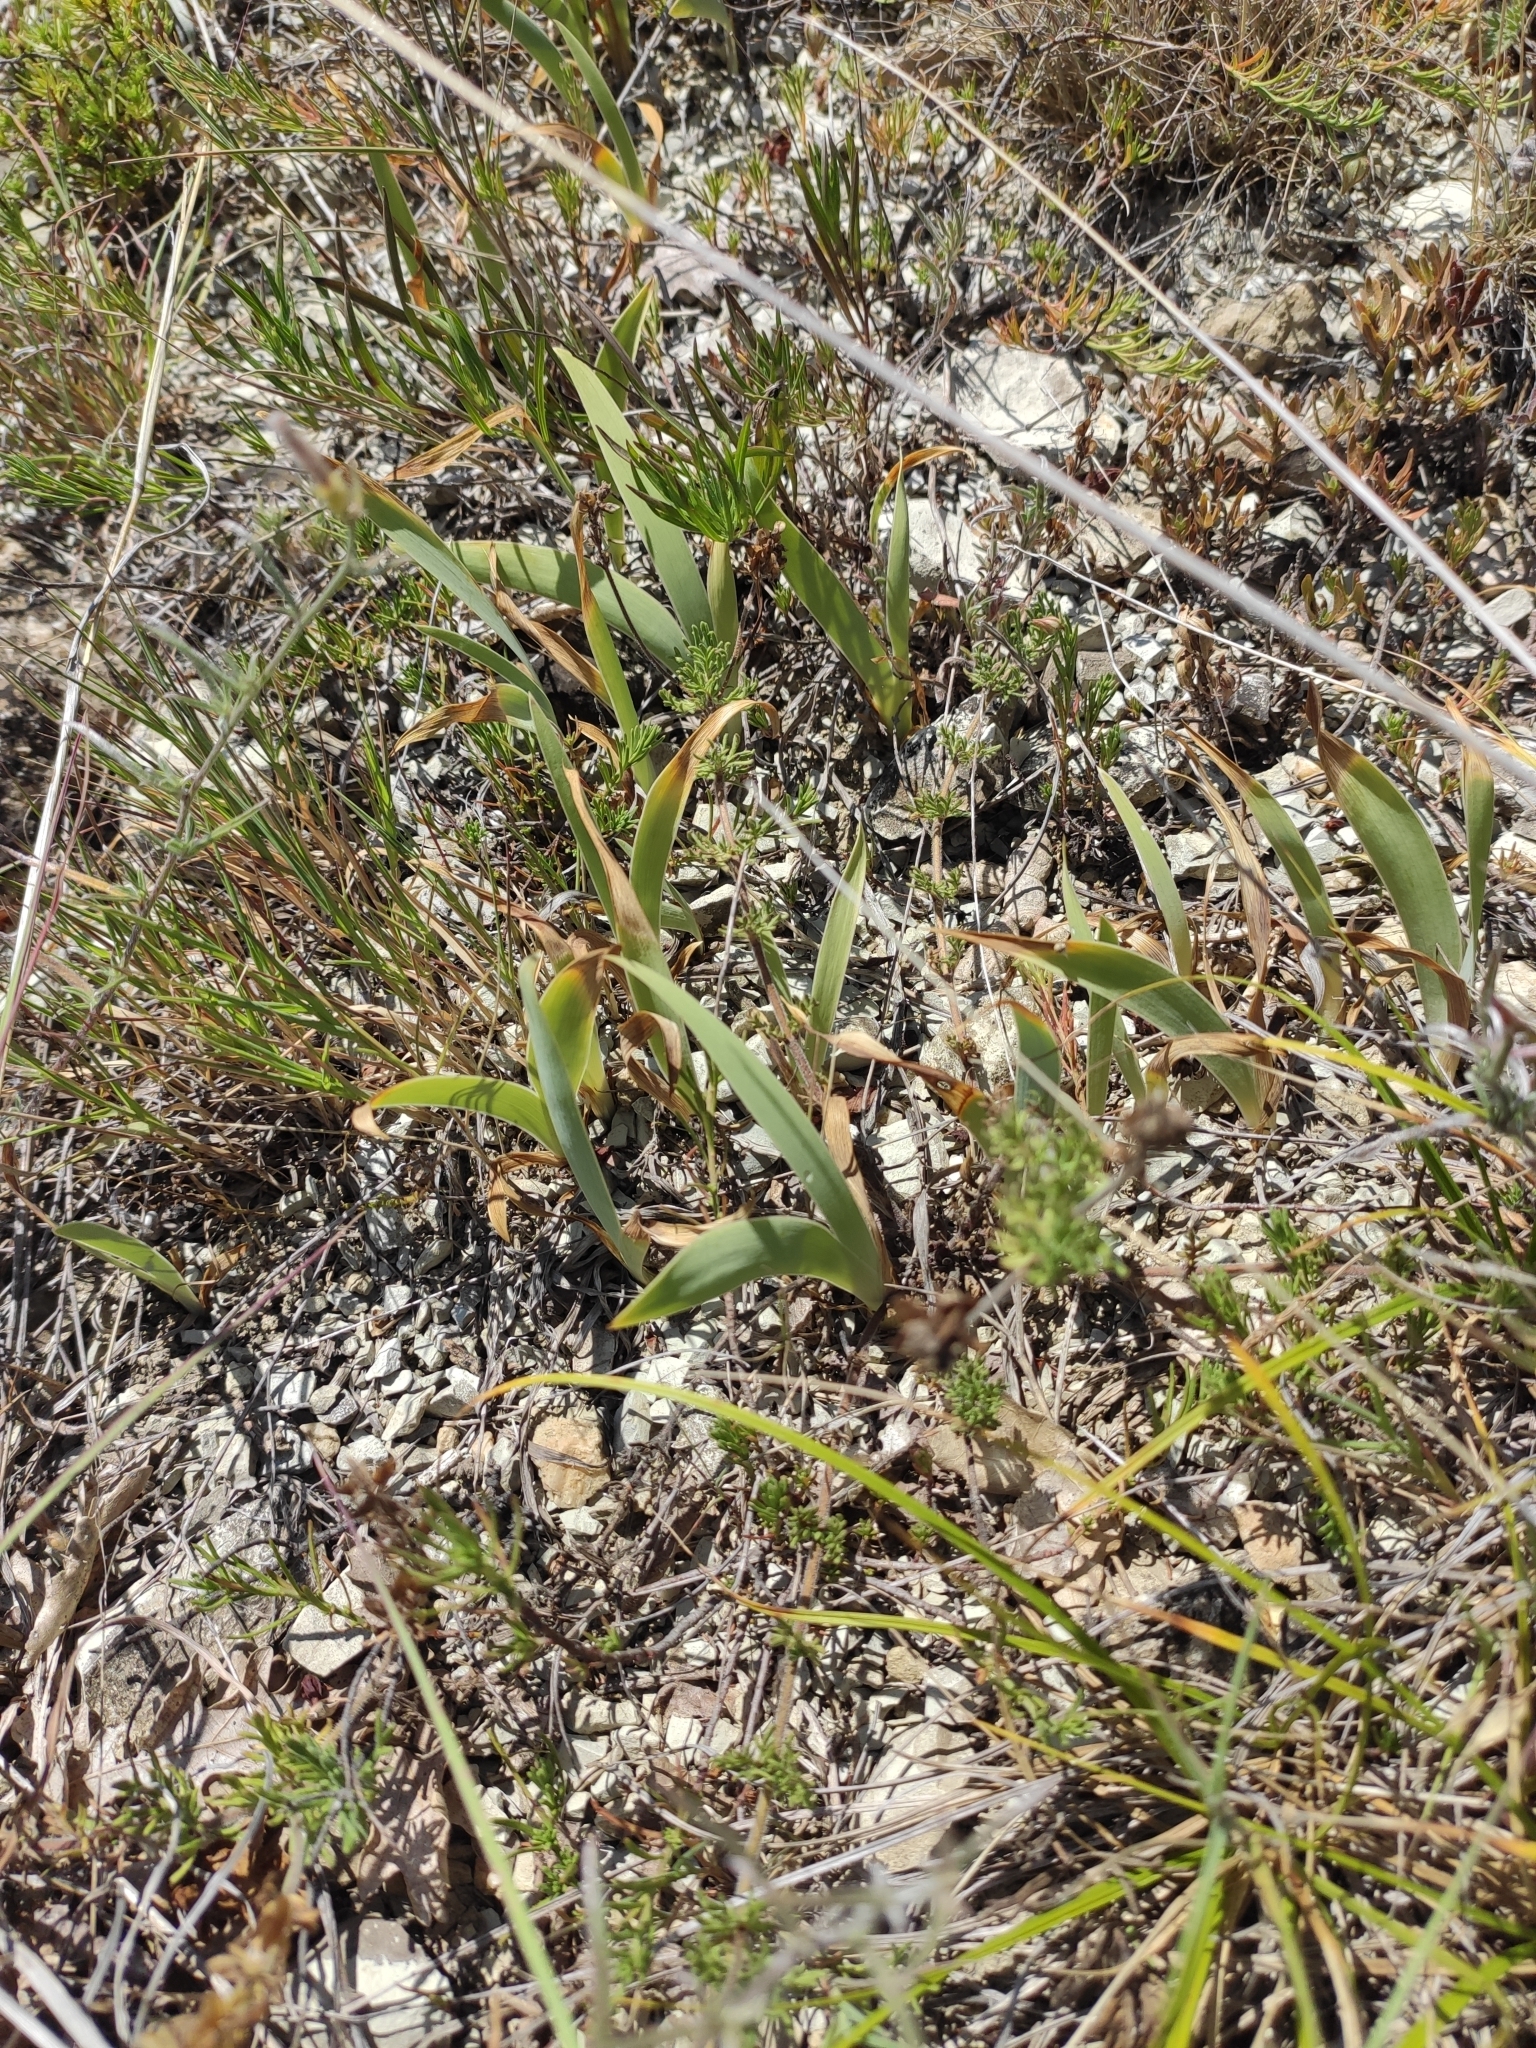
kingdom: Plantae
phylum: Tracheophyta
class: Liliopsida
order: Asparagales
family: Iridaceae
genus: Iris
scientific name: Iris pumila
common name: Dwarf iris
